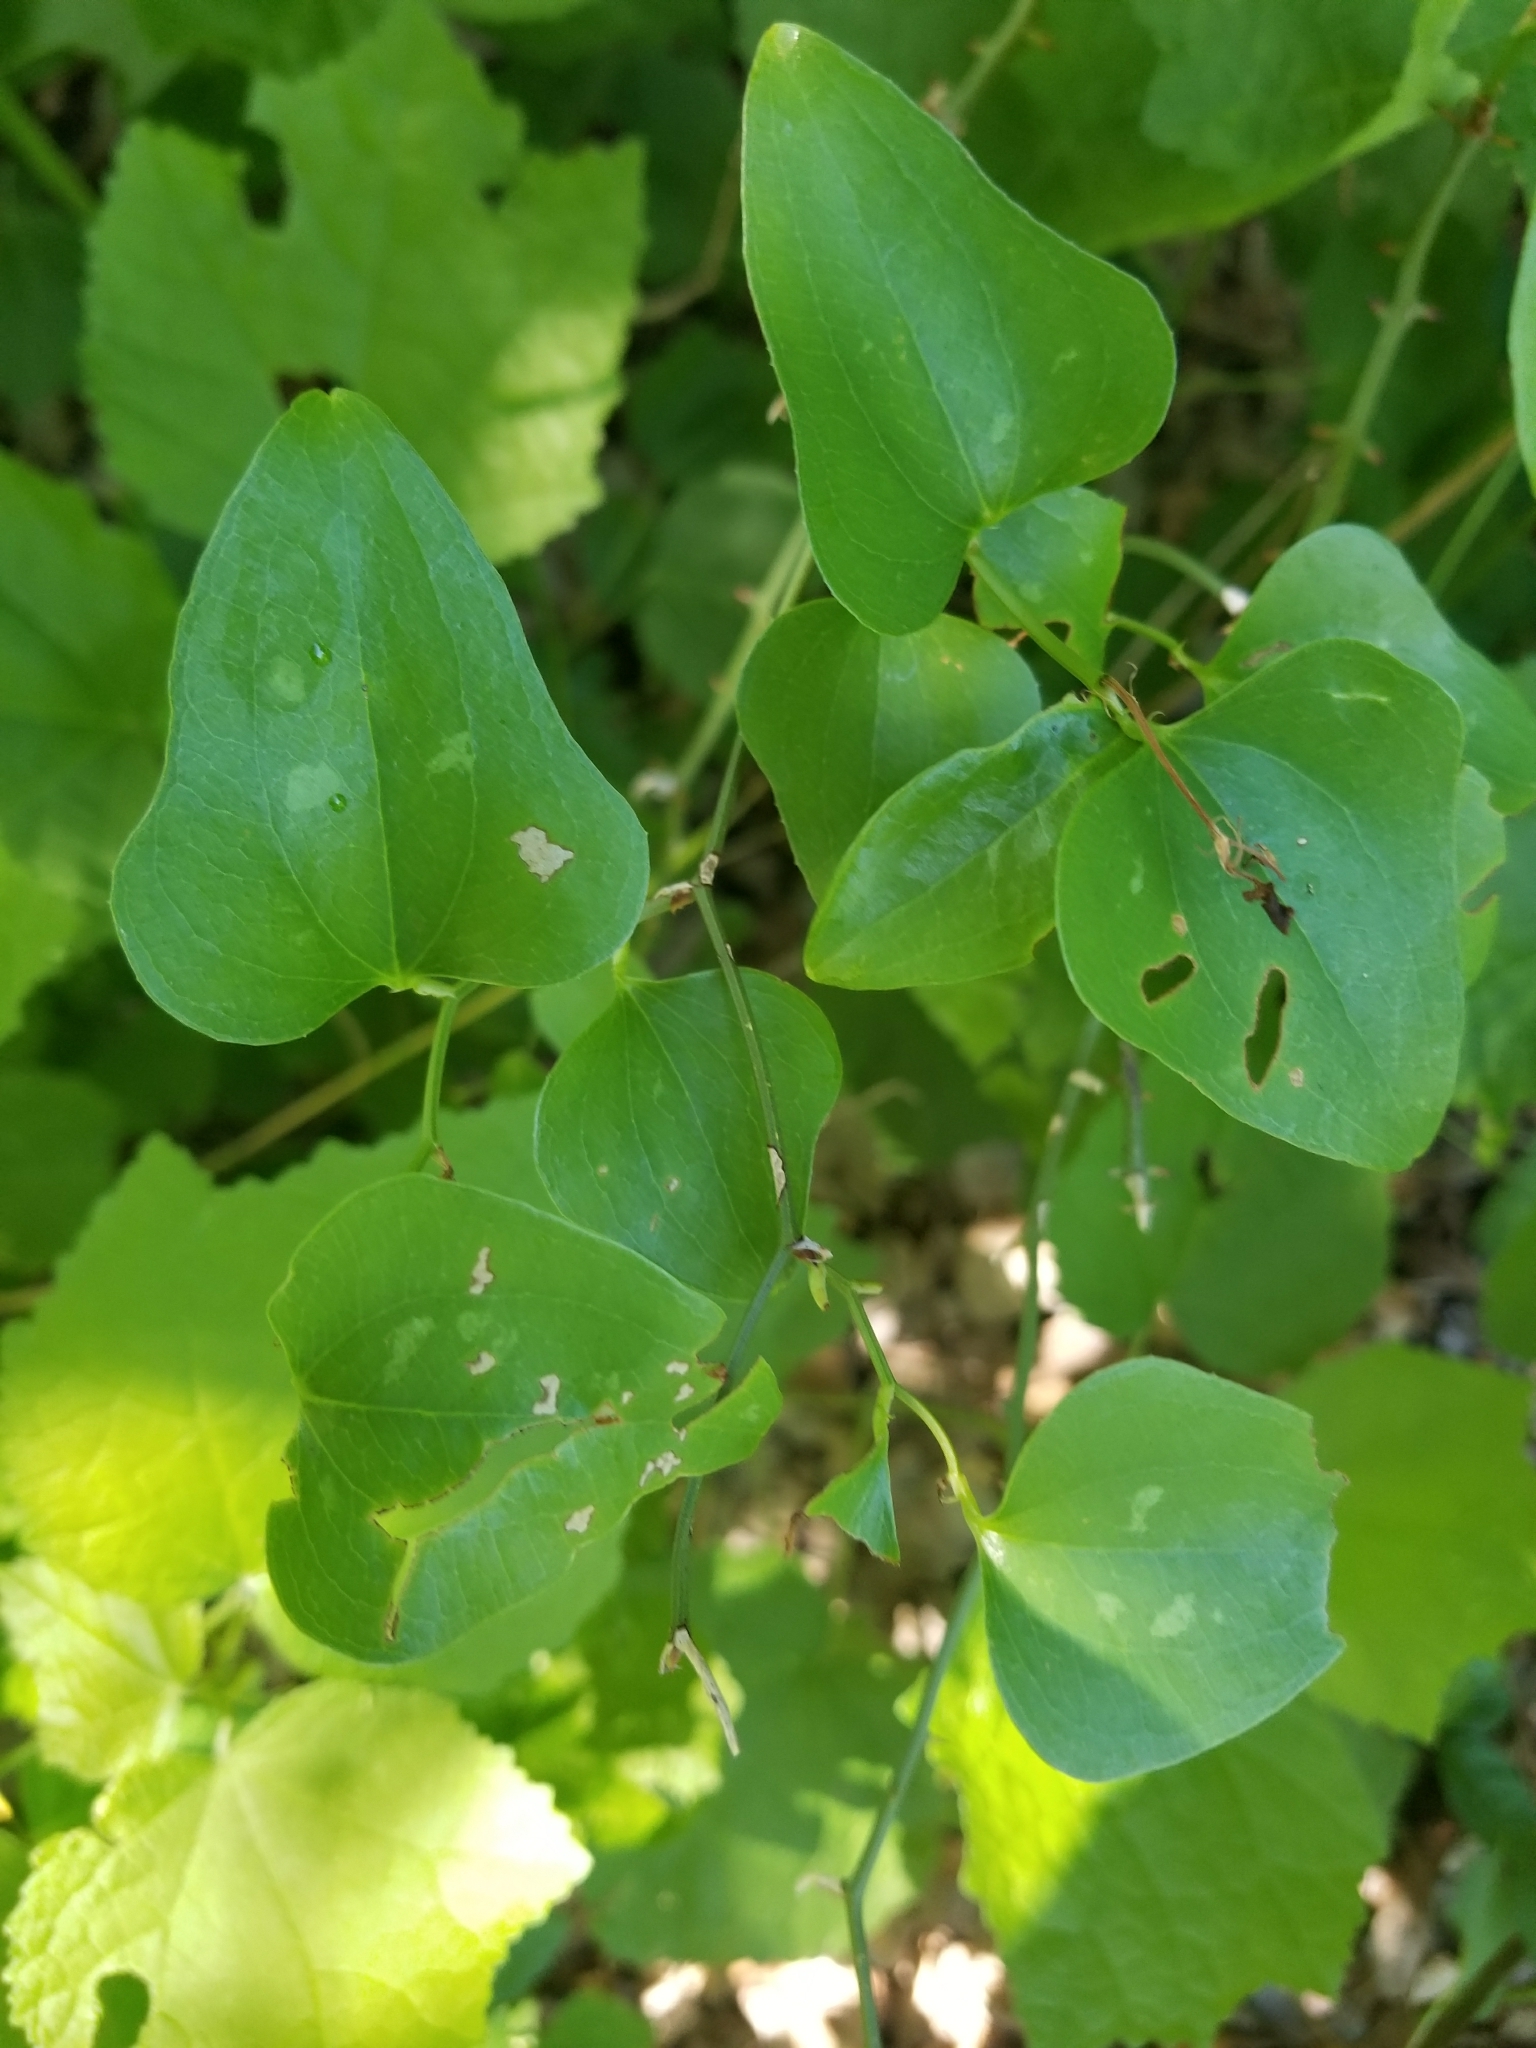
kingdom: Plantae
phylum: Tracheophyta
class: Liliopsida
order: Liliales
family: Smilacaceae
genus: Smilax
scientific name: Smilax bona-nox
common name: Catbrier
